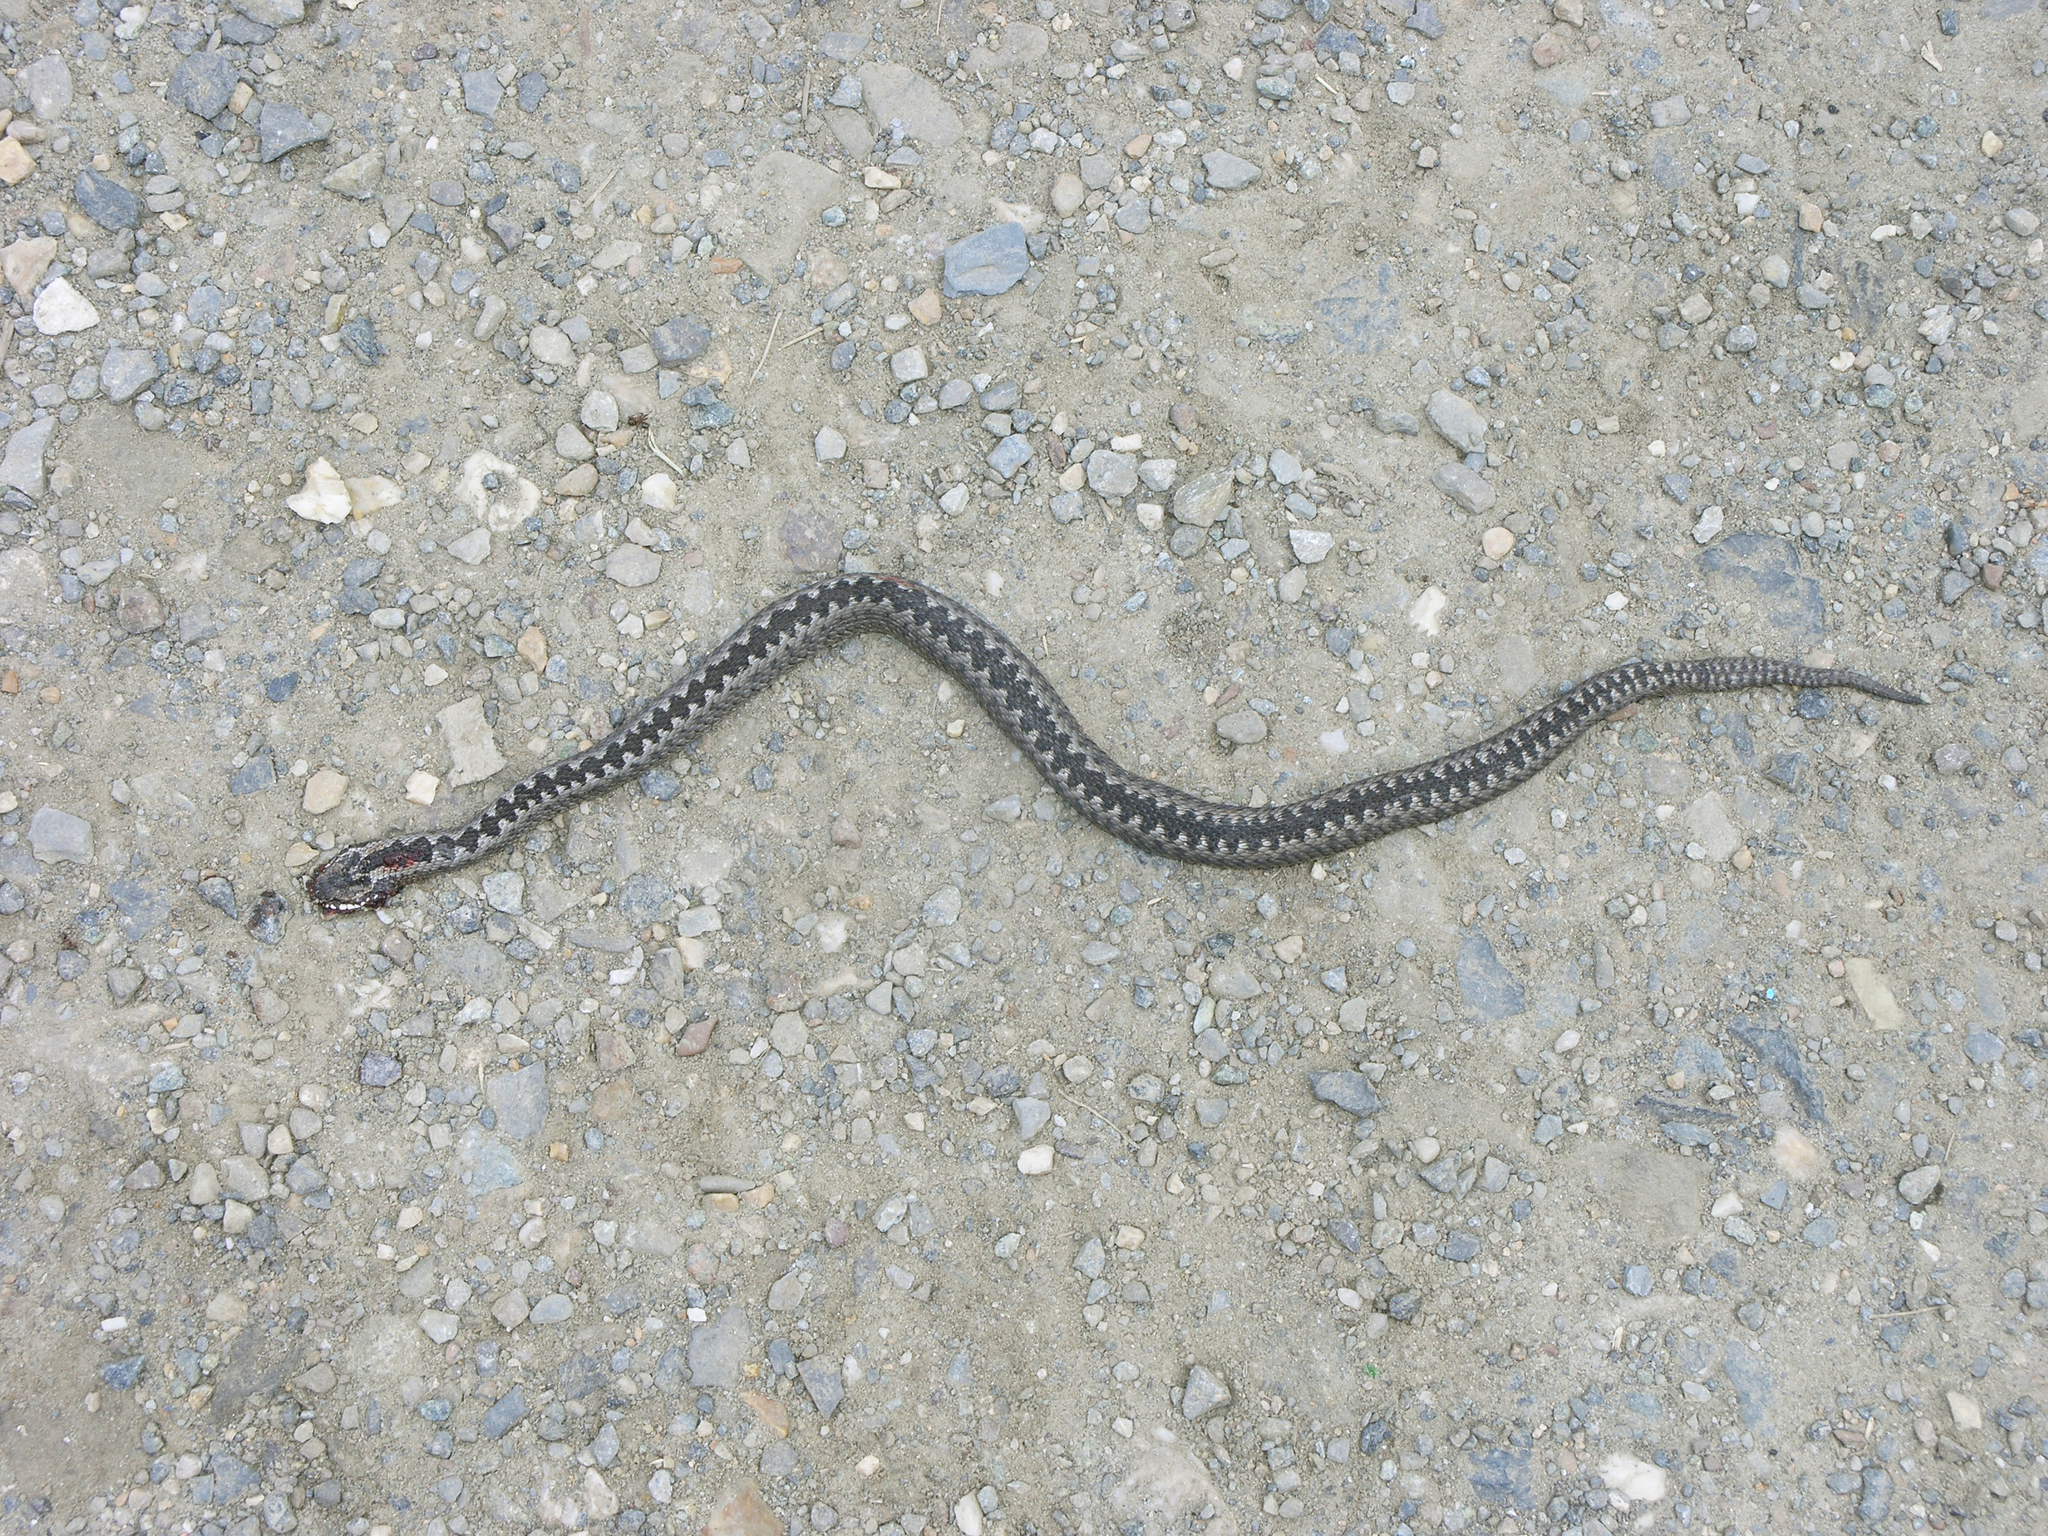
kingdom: Animalia
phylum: Chordata
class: Squamata
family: Viperidae
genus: Vipera
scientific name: Vipera berus
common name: Adder
